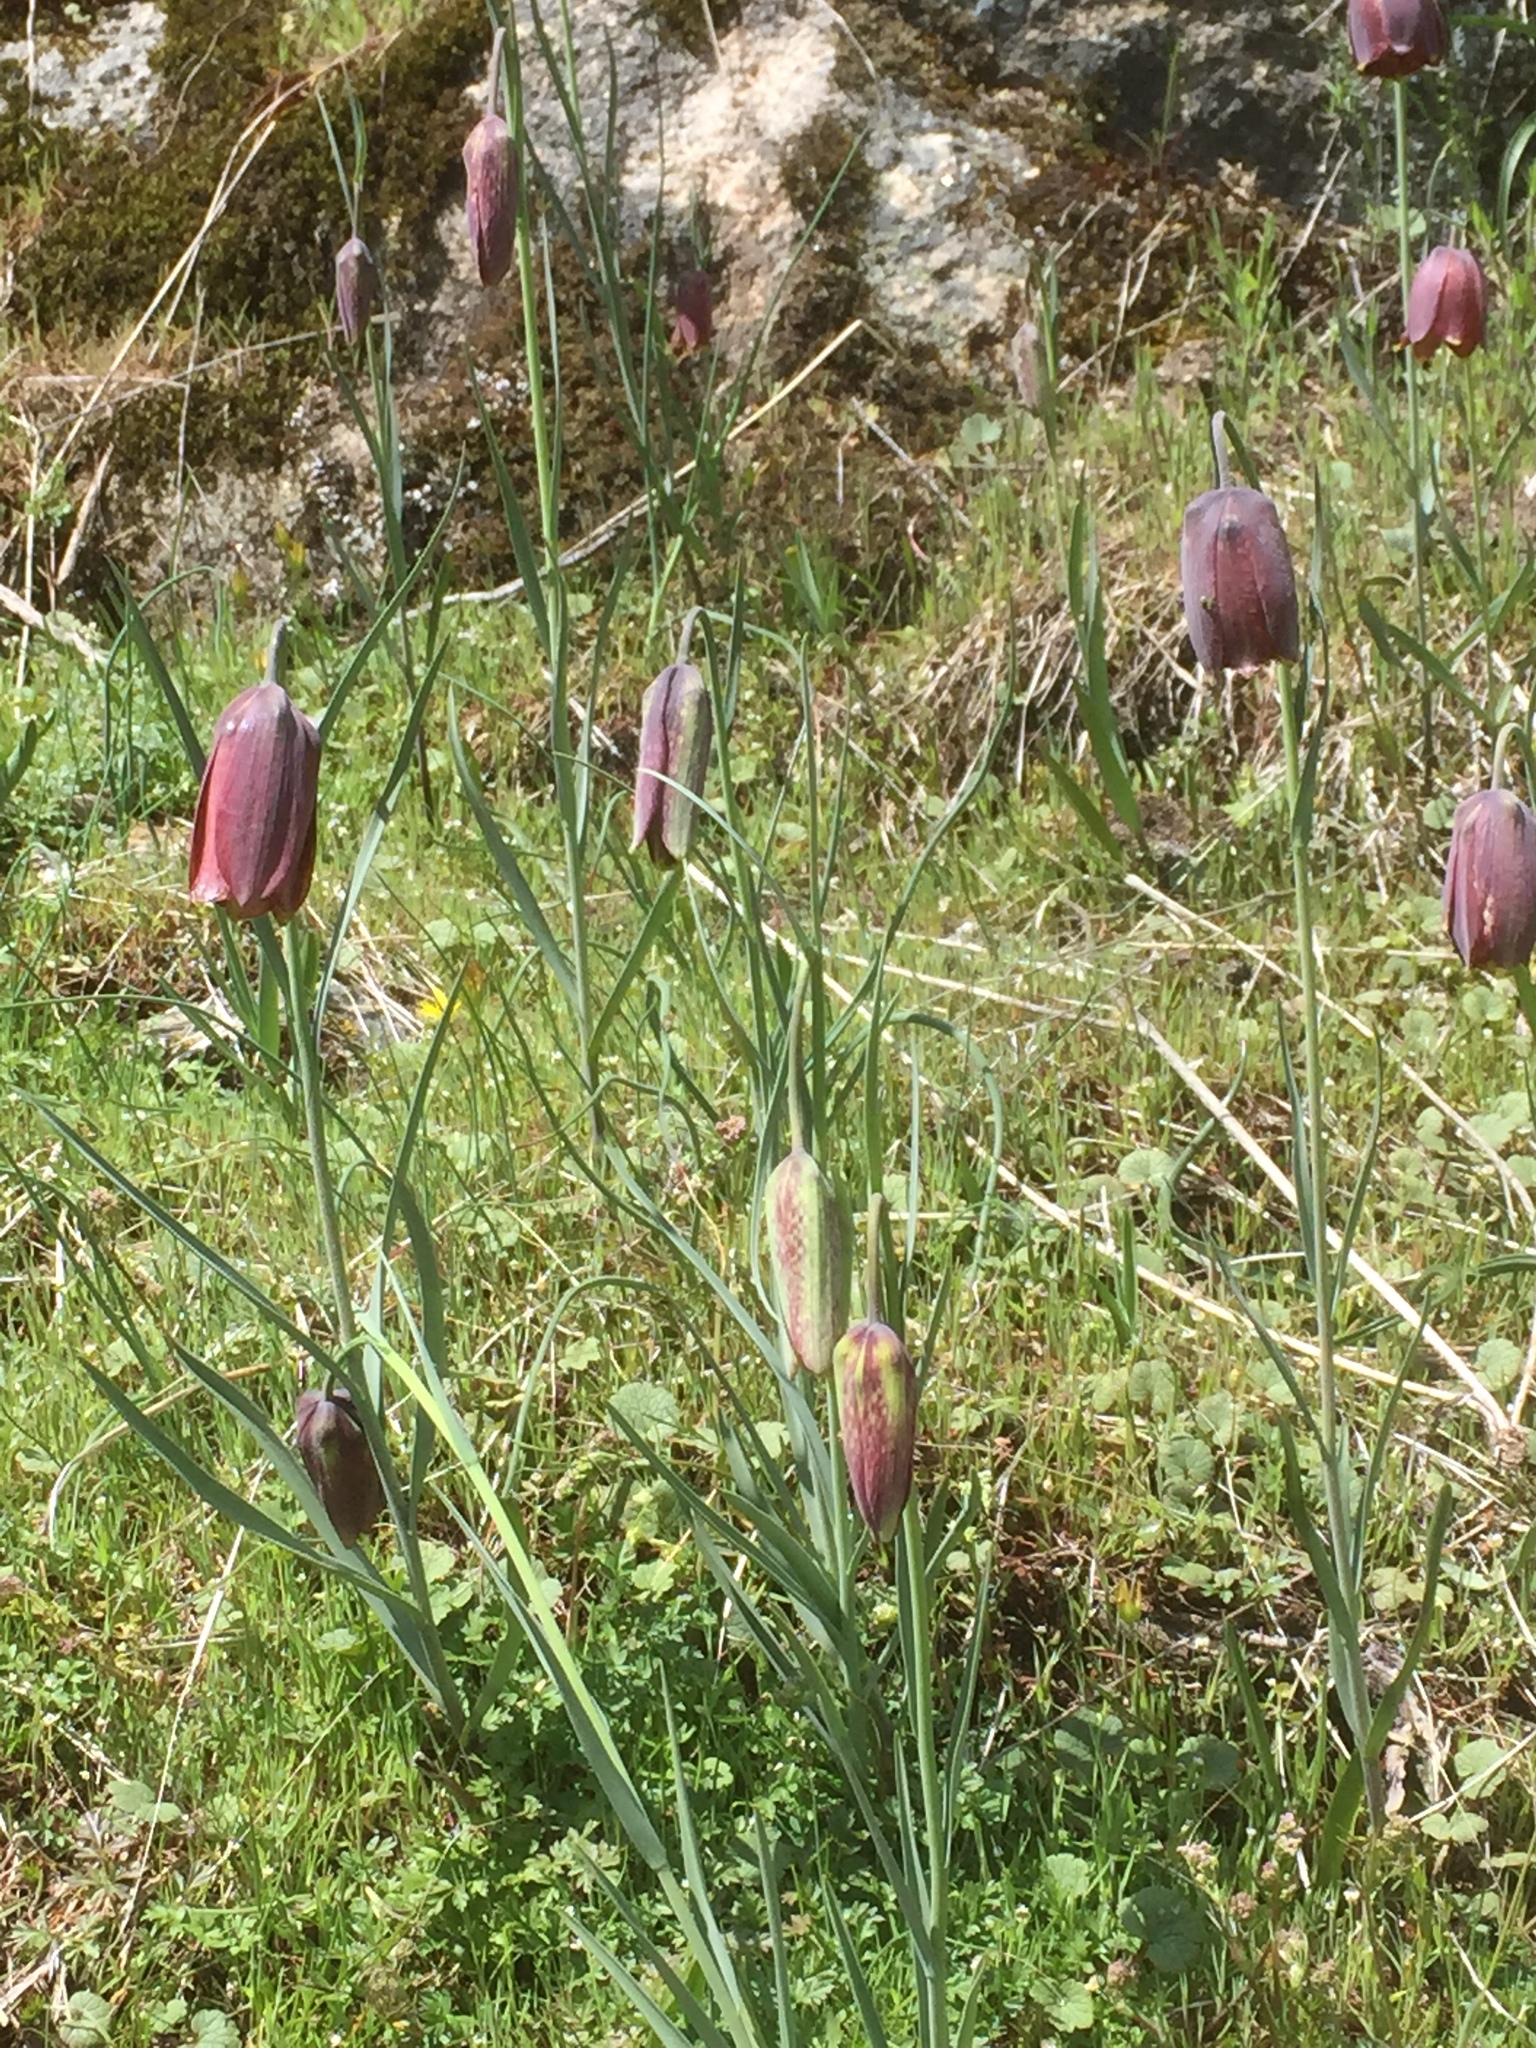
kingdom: Plantae
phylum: Tracheophyta
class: Liliopsida
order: Liliales
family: Liliaceae
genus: Fritillaria
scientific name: Fritillaria lusitanica
